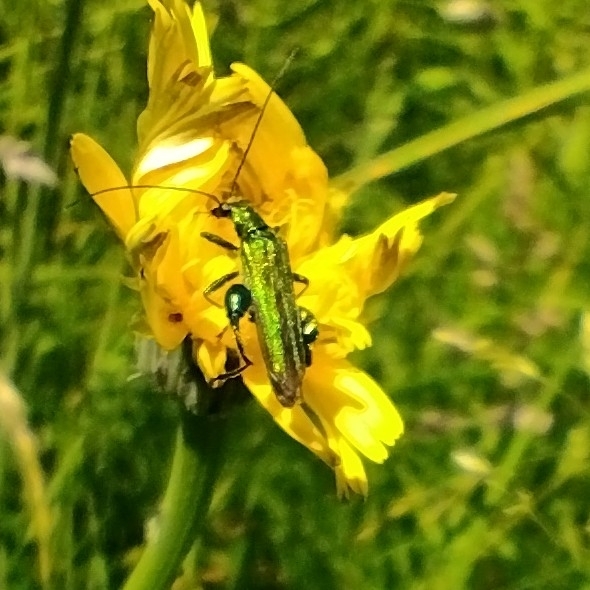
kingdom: Animalia
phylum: Arthropoda
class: Insecta
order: Coleoptera
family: Oedemeridae
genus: Oedemera
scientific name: Oedemera nobilis
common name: Swollen-thighed beetle
